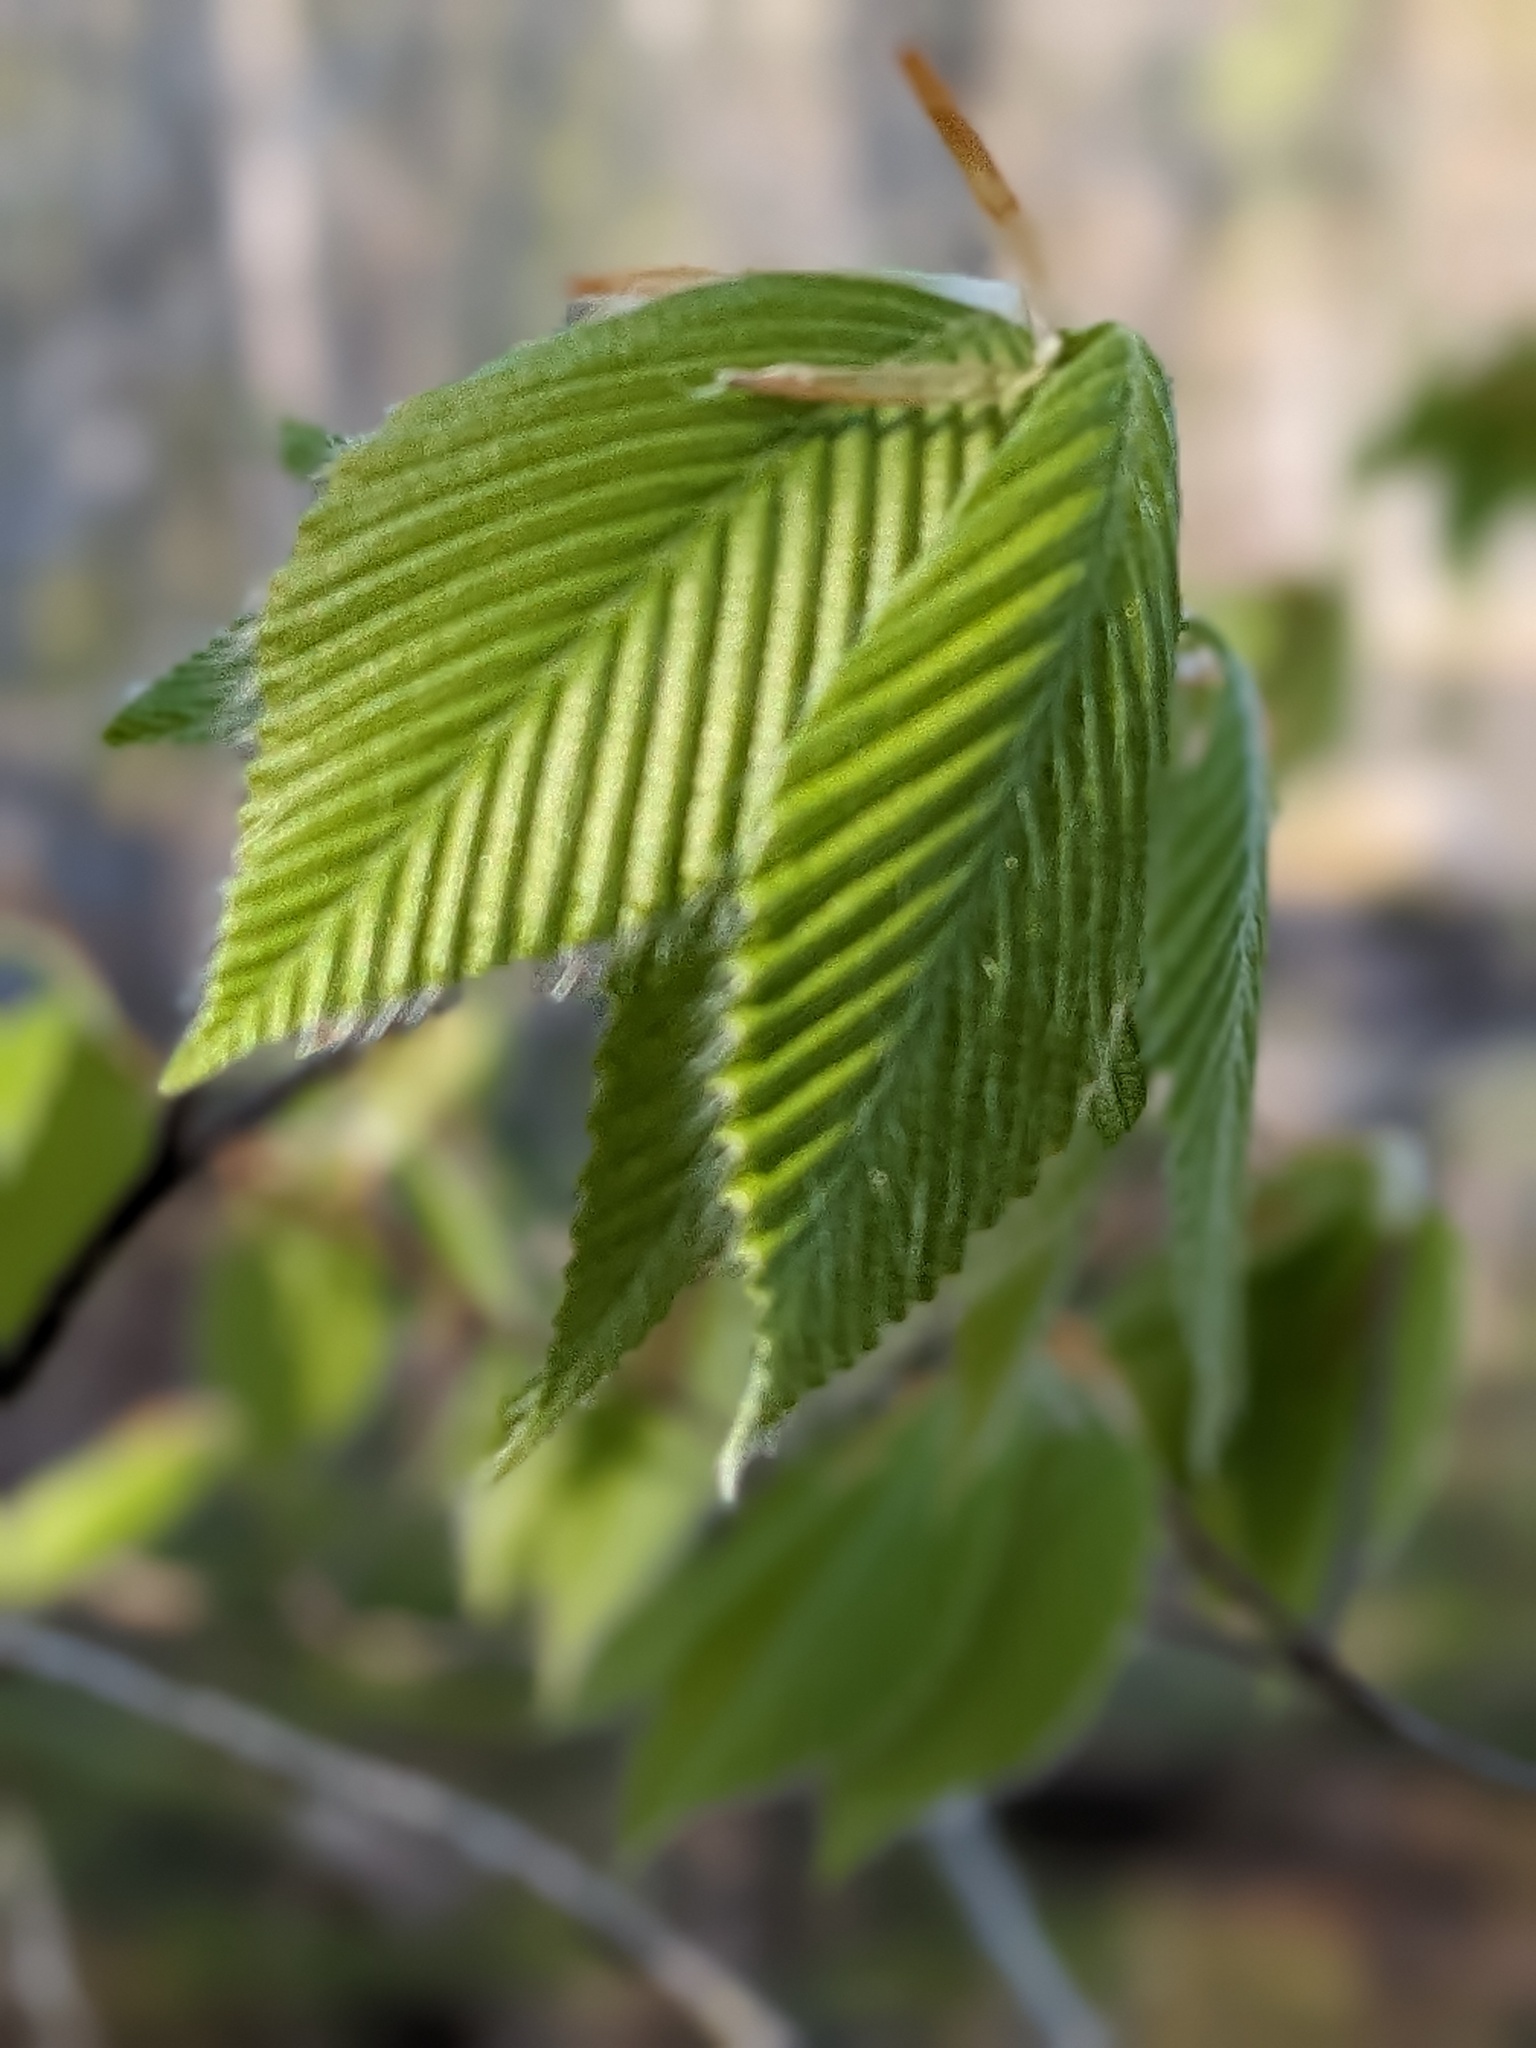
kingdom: Plantae
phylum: Tracheophyta
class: Magnoliopsida
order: Fagales
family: Fagaceae
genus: Fagus
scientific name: Fagus grandifolia
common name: American beech
